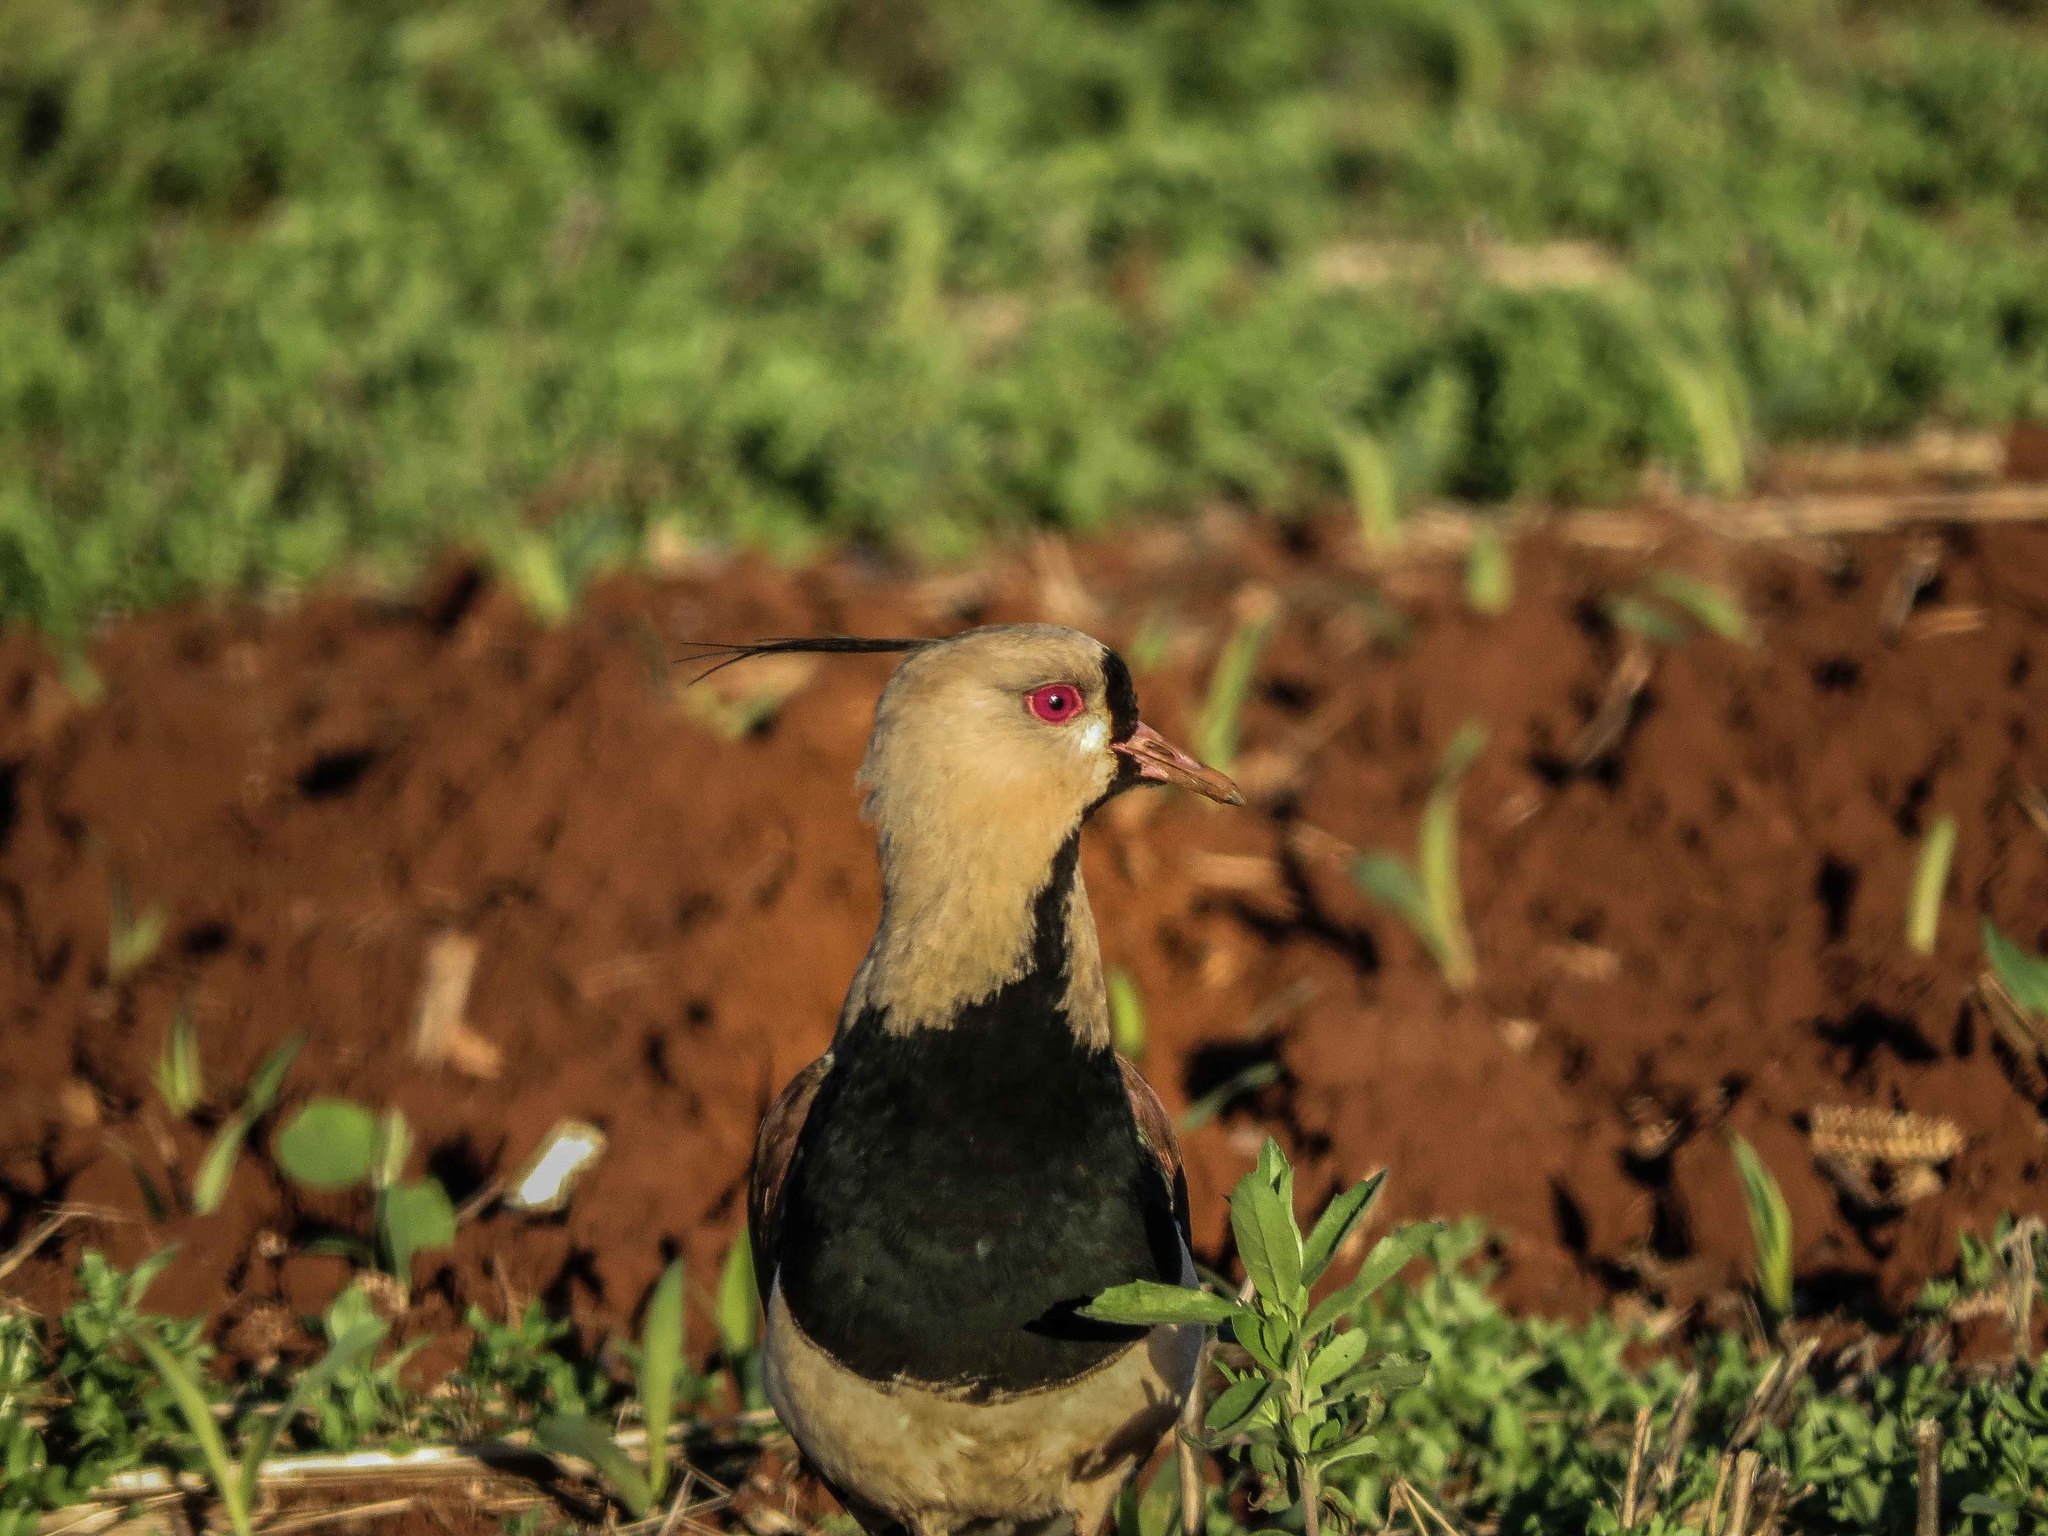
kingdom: Animalia
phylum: Chordata
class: Aves
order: Charadriiformes
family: Charadriidae
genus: Vanellus
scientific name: Vanellus chilensis
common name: Southern lapwing
